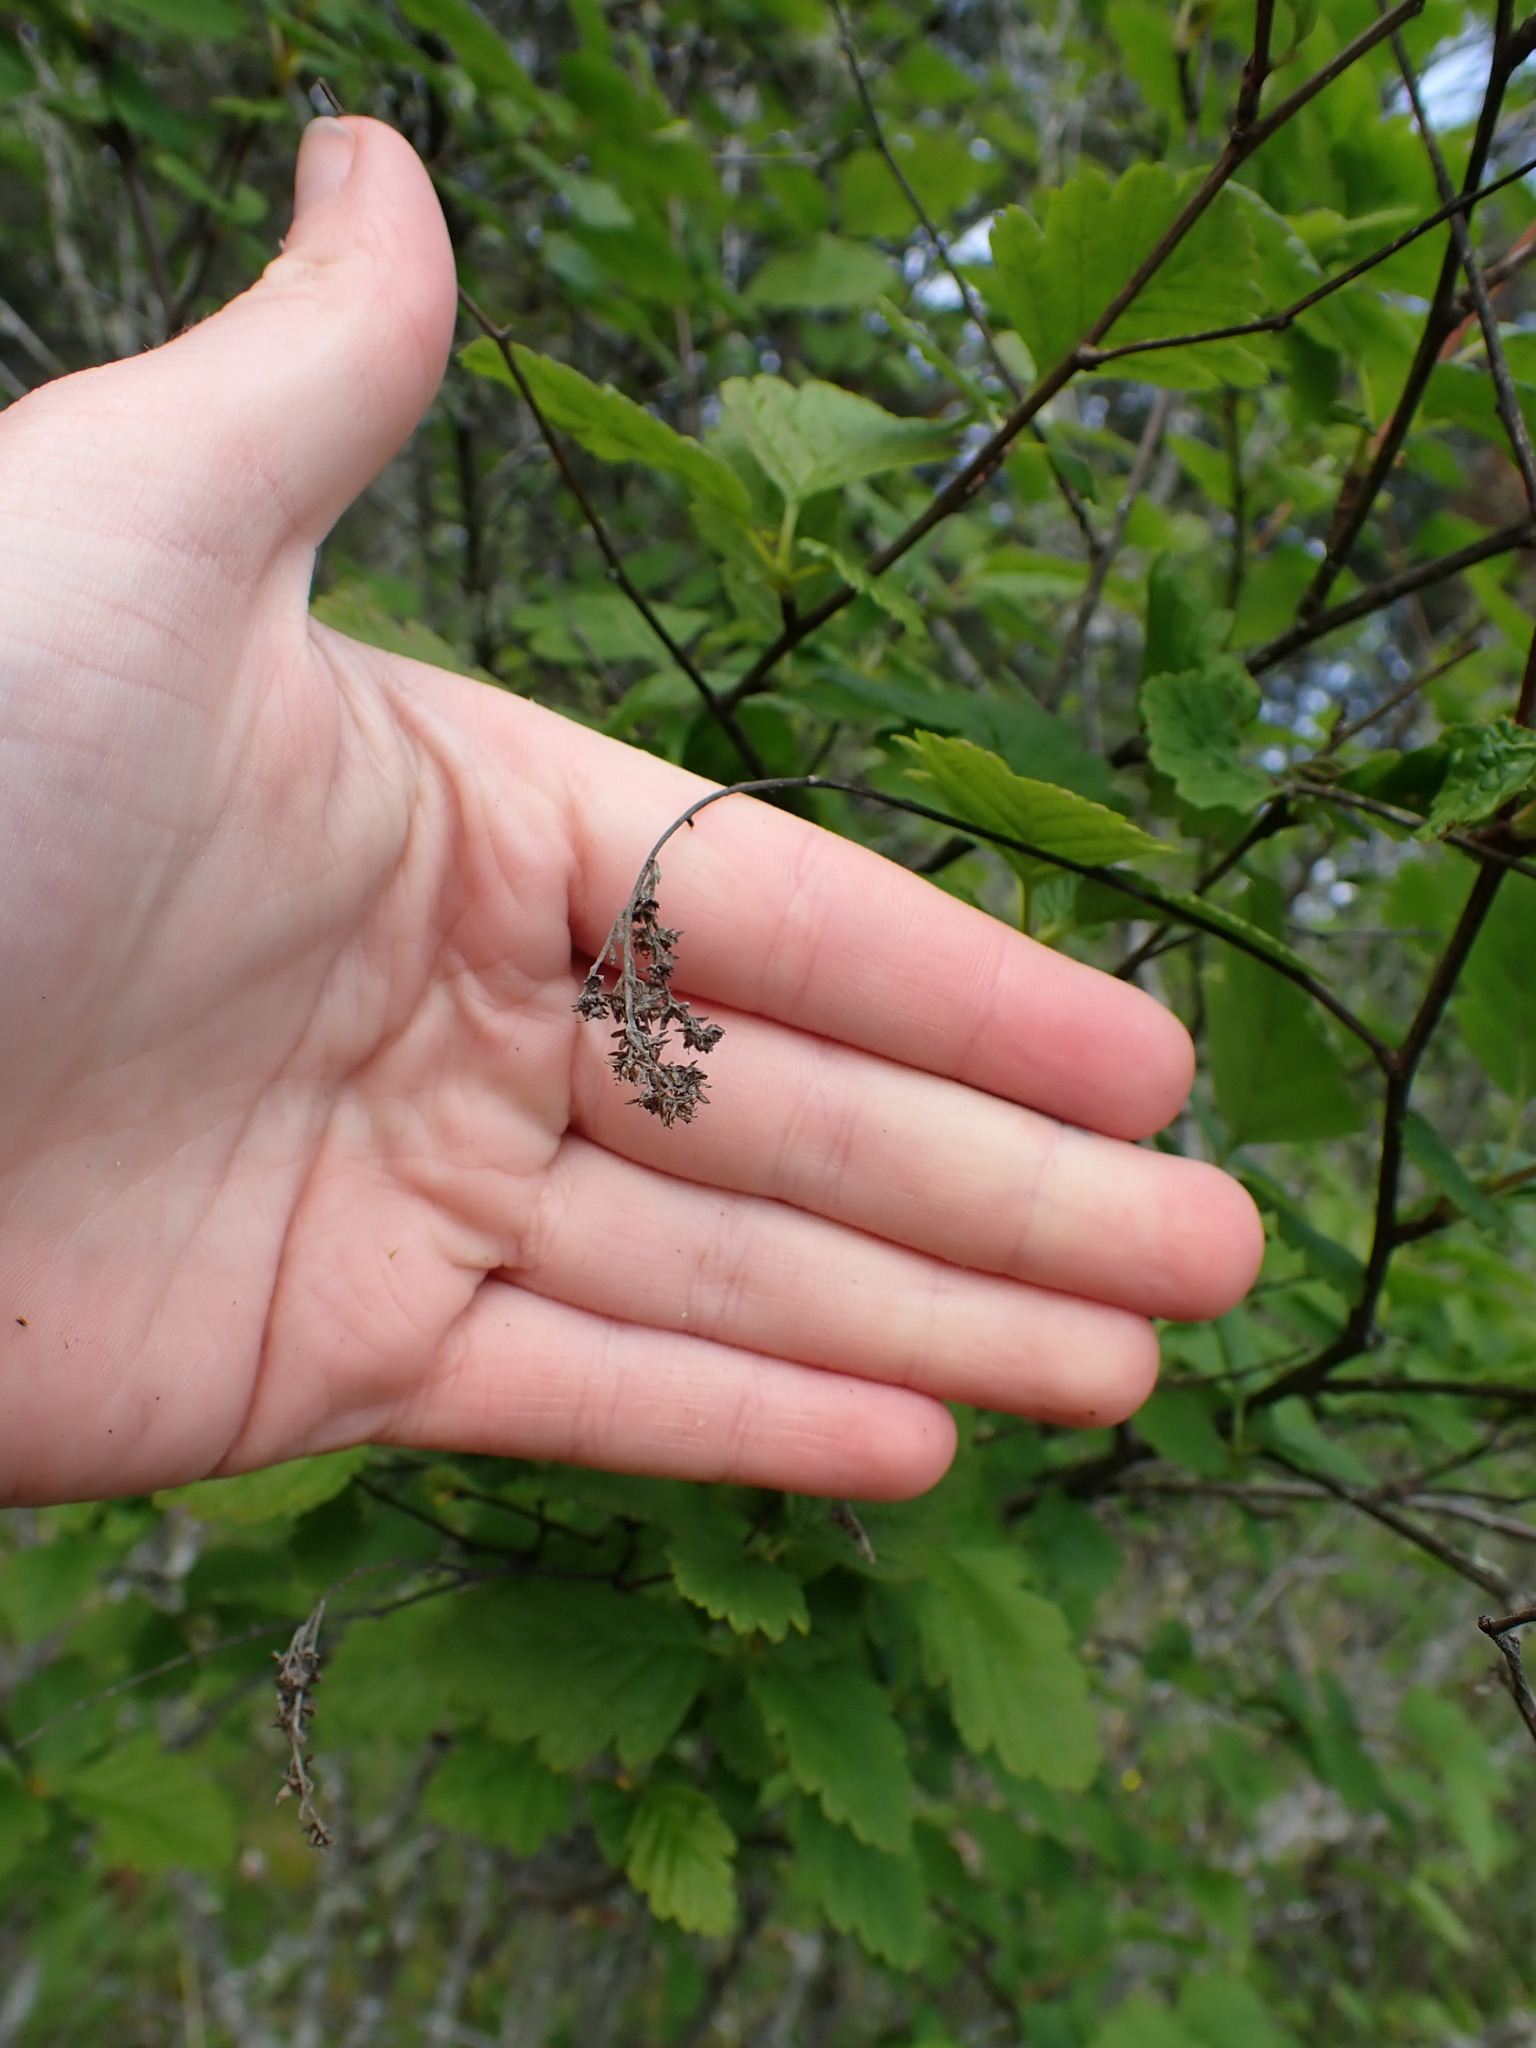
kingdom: Plantae
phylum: Tracheophyta
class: Magnoliopsida
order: Rosales
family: Rosaceae
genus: Holodiscus
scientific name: Holodiscus discolor
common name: Oceanspray
